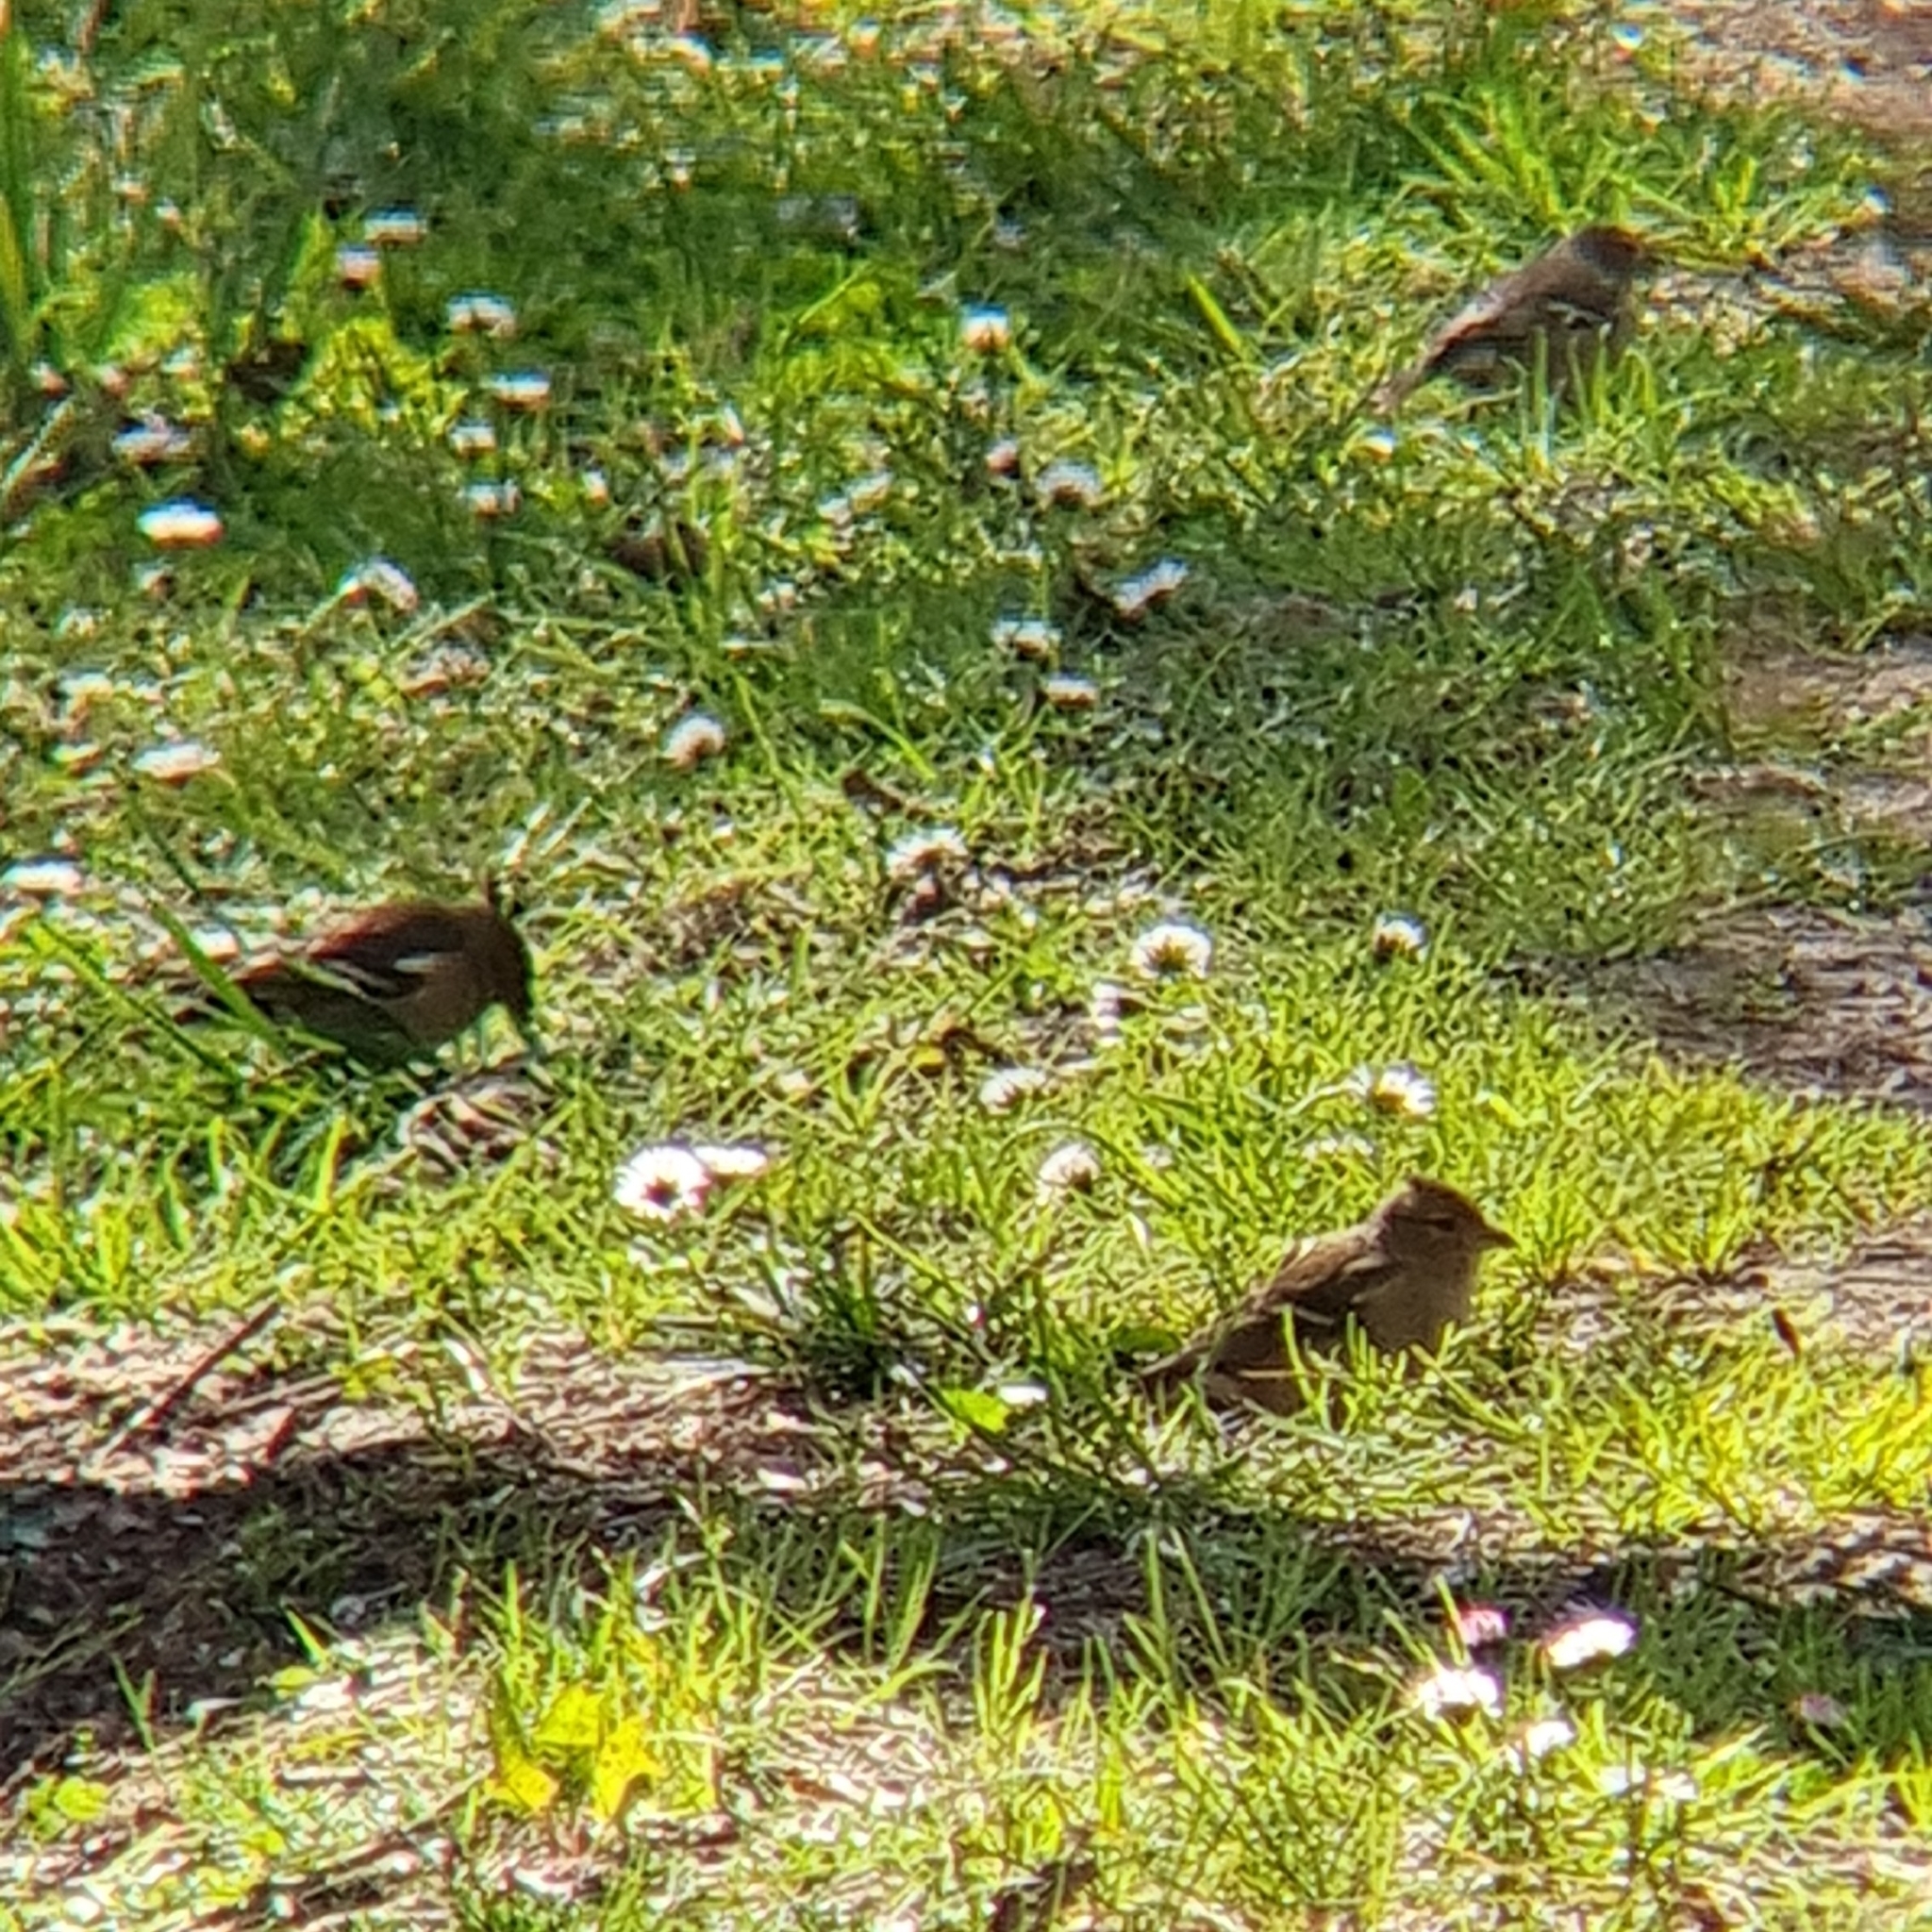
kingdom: Animalia
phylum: Chordata
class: Aves
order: Passeriformes
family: Fringillidae
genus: Fringilla
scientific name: Fringilla coelebs
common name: Common chaffinch
